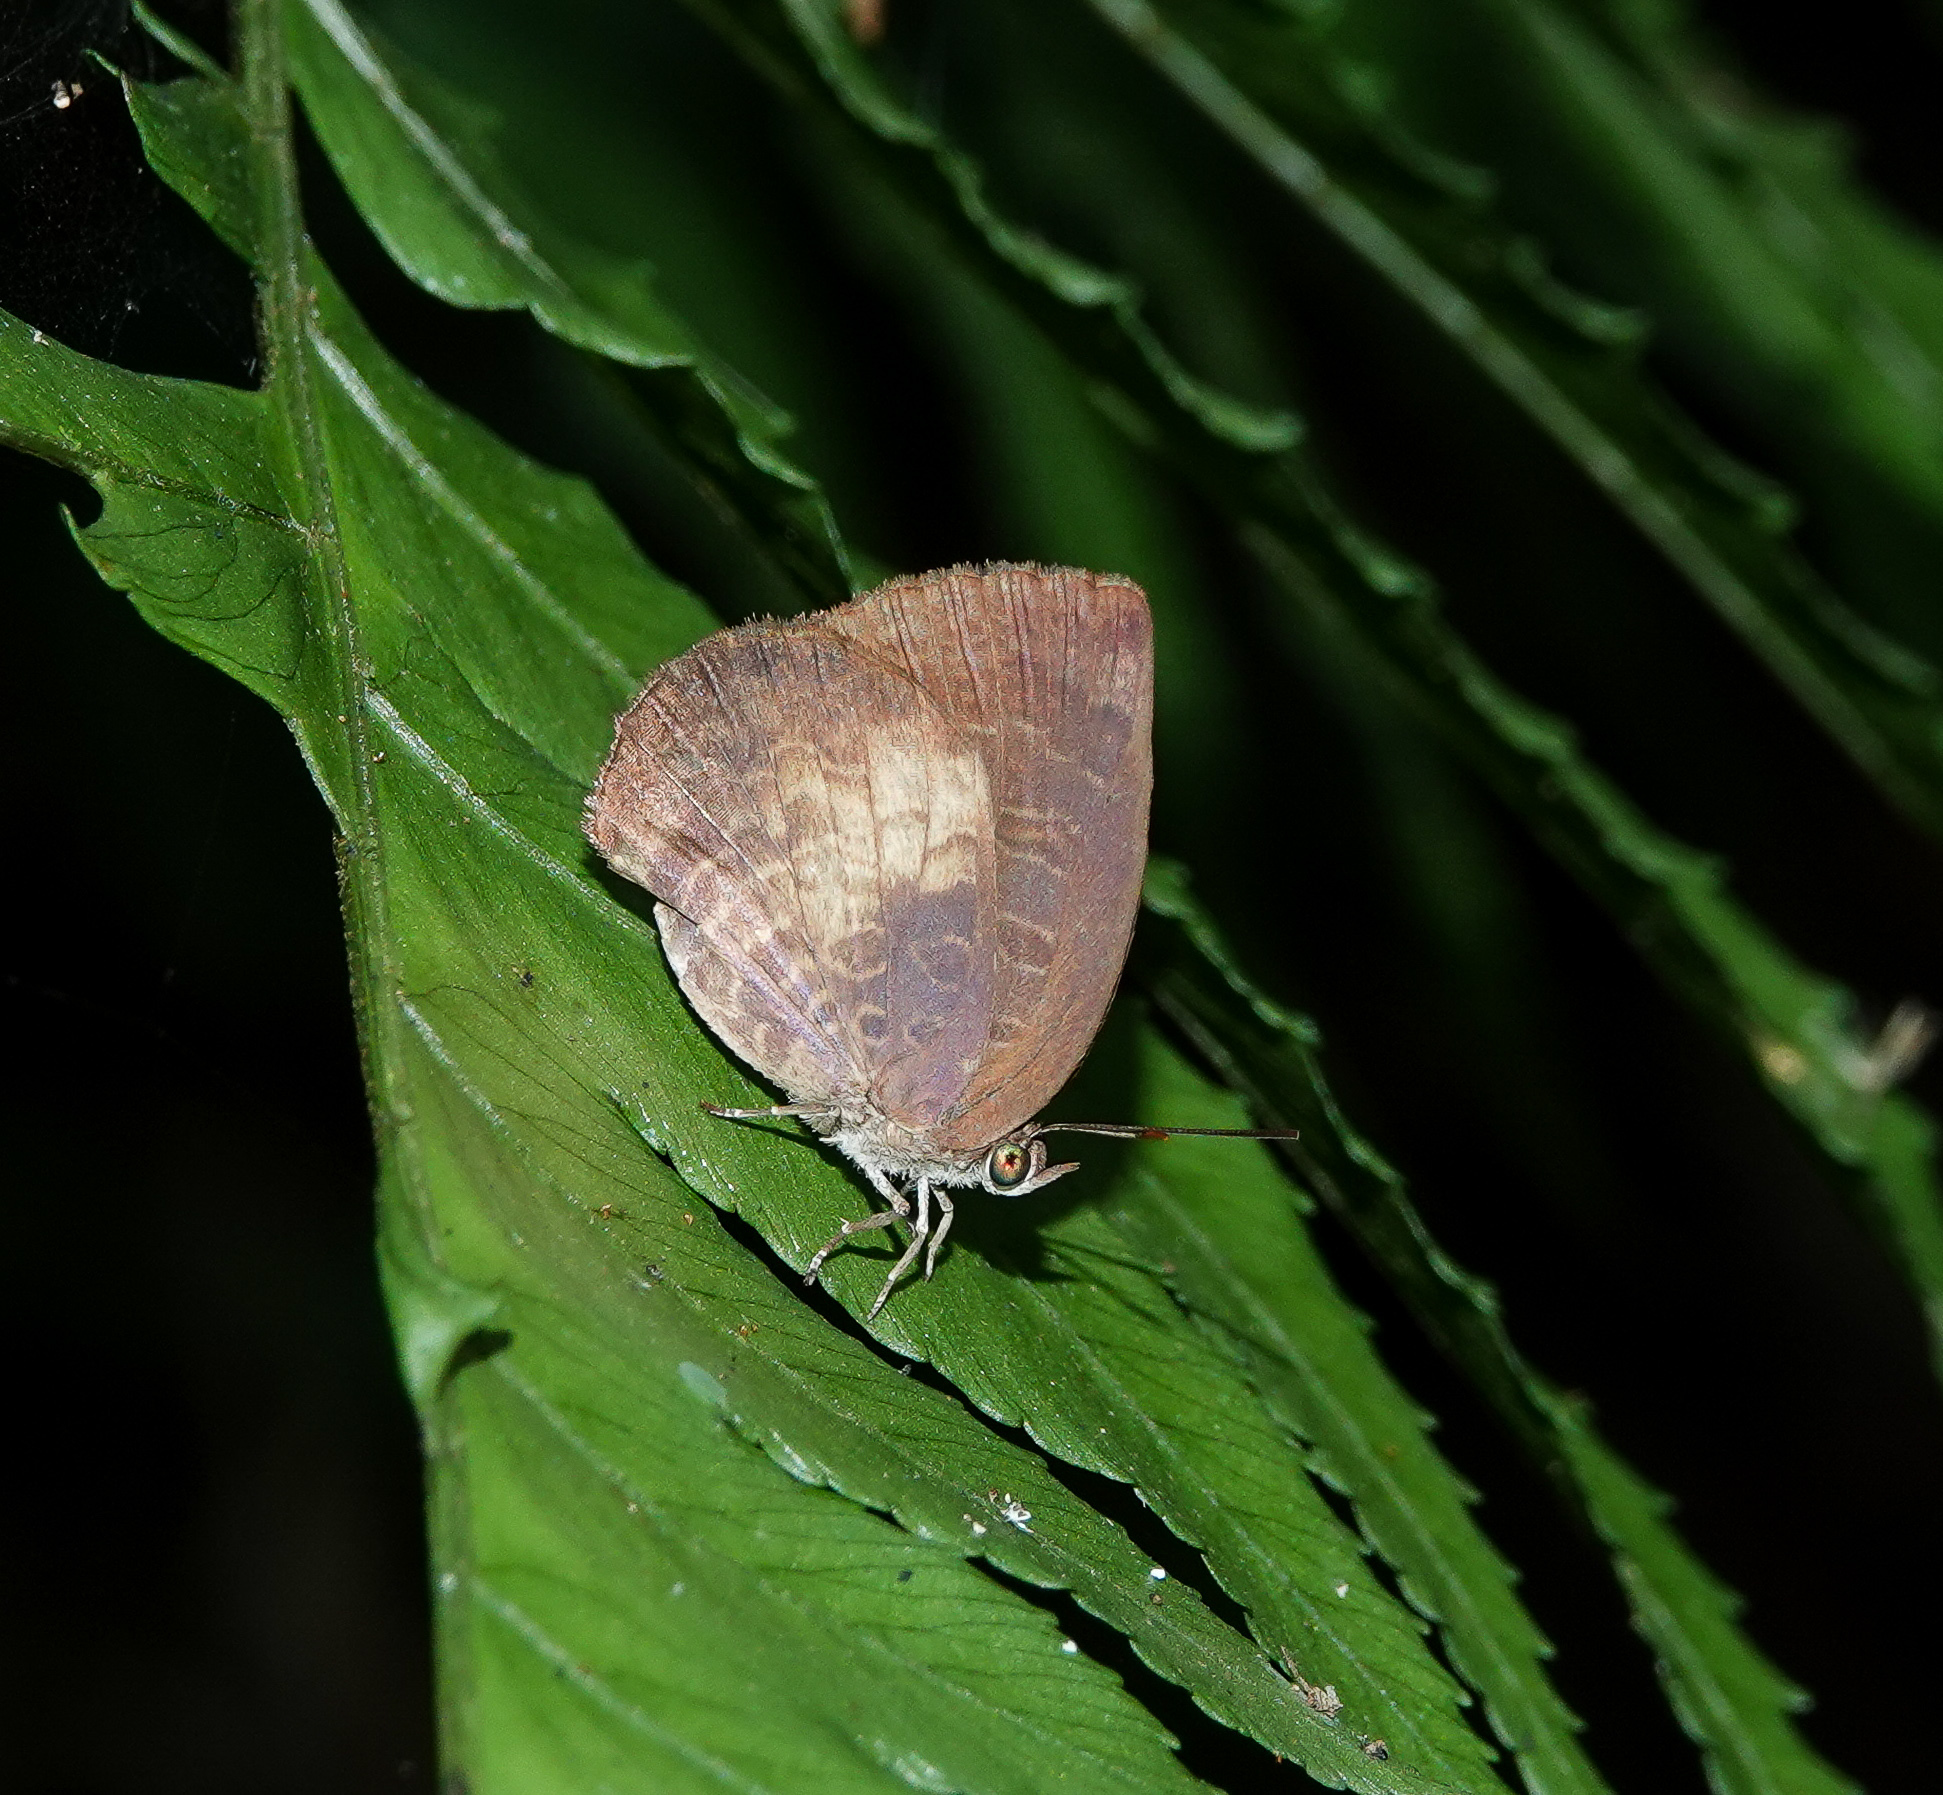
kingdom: Animalia
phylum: Arthropoda
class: Insecta
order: Lepidoptera
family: Lycaenidae
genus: Arhopala
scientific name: Arhopala perimuta
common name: Yellowdisc oakblue
